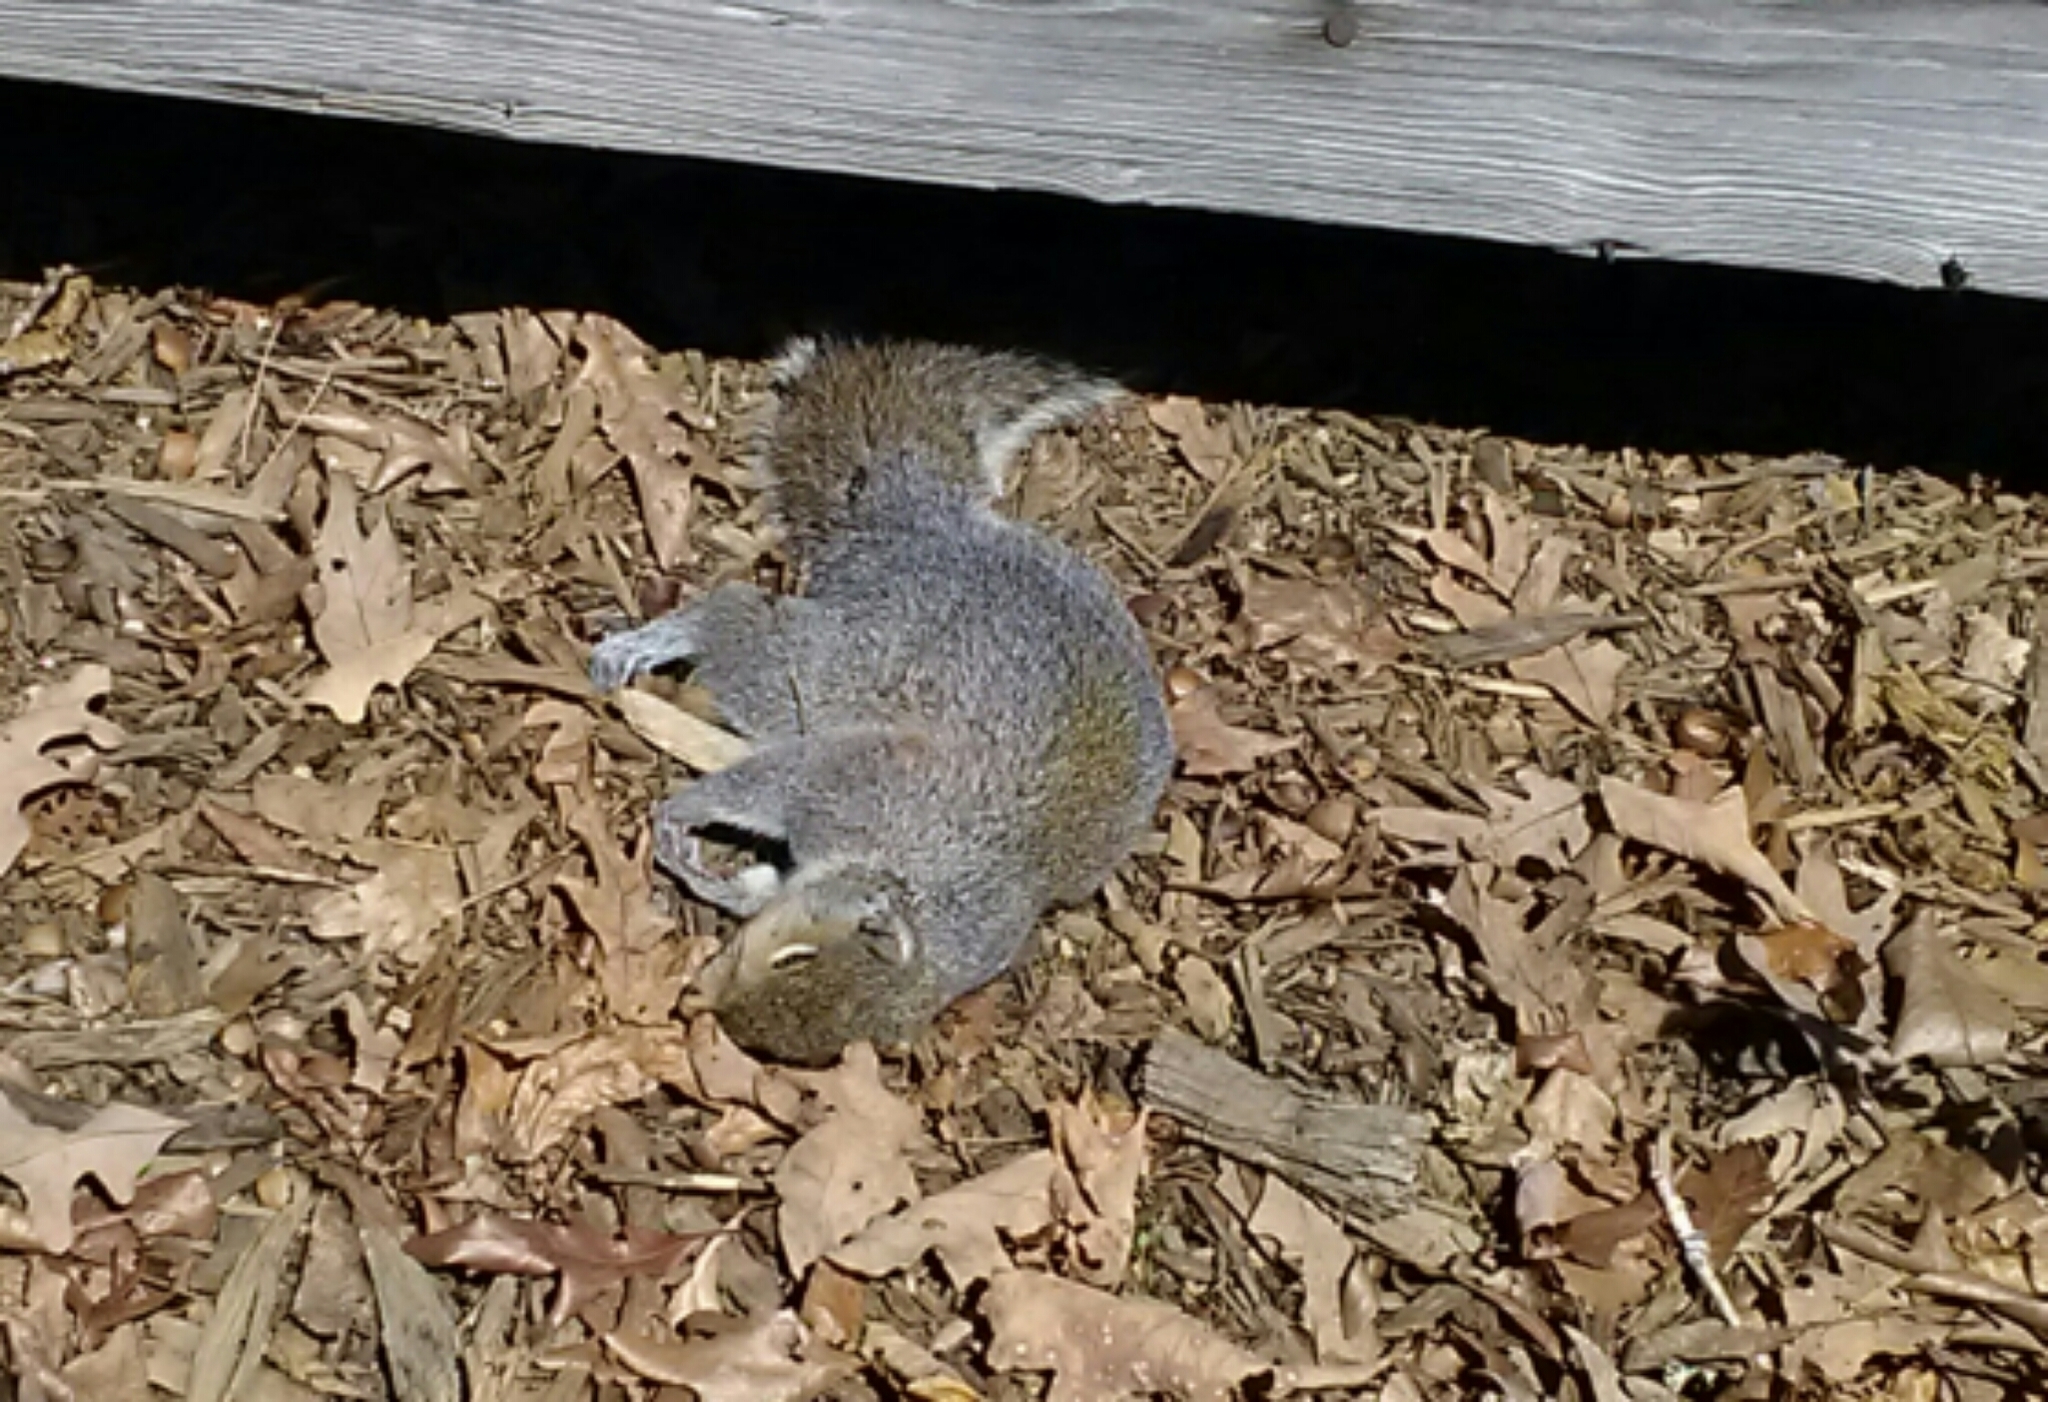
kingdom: Animalia
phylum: Chordata
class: Mammalia
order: Rodentia
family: Sciuridae
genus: Sciurus
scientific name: Sciurus carolinensis
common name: Eastern gray squirrel
